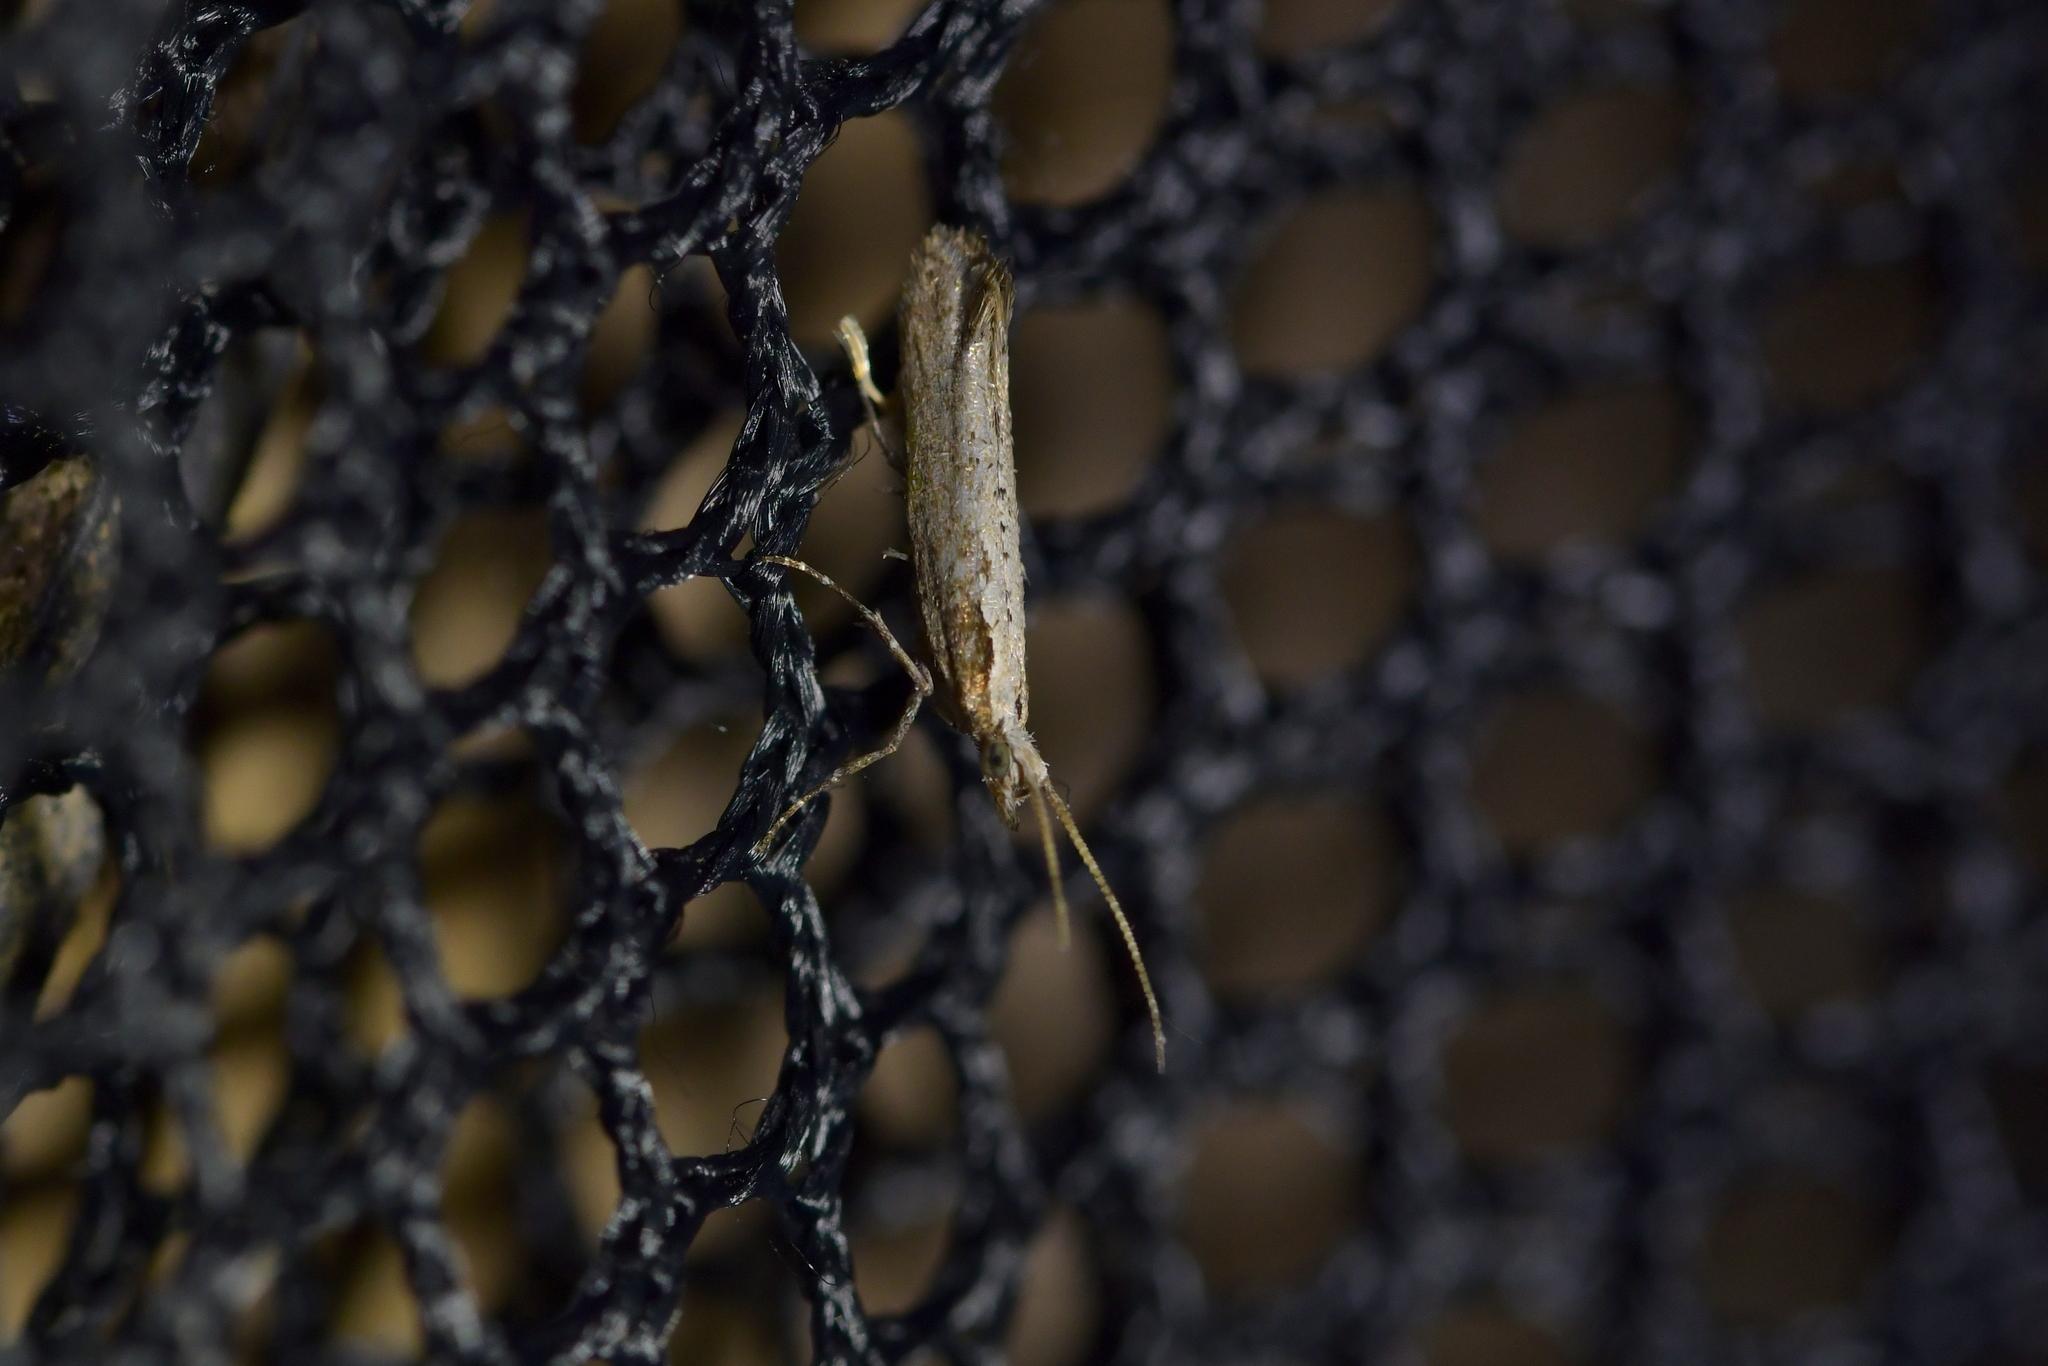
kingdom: Animalia
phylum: Arthropoda
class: Insecta
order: Lepidoptera
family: Plutellidae
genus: Plutella
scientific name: Plutella xylostella
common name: Diamond-back moth
